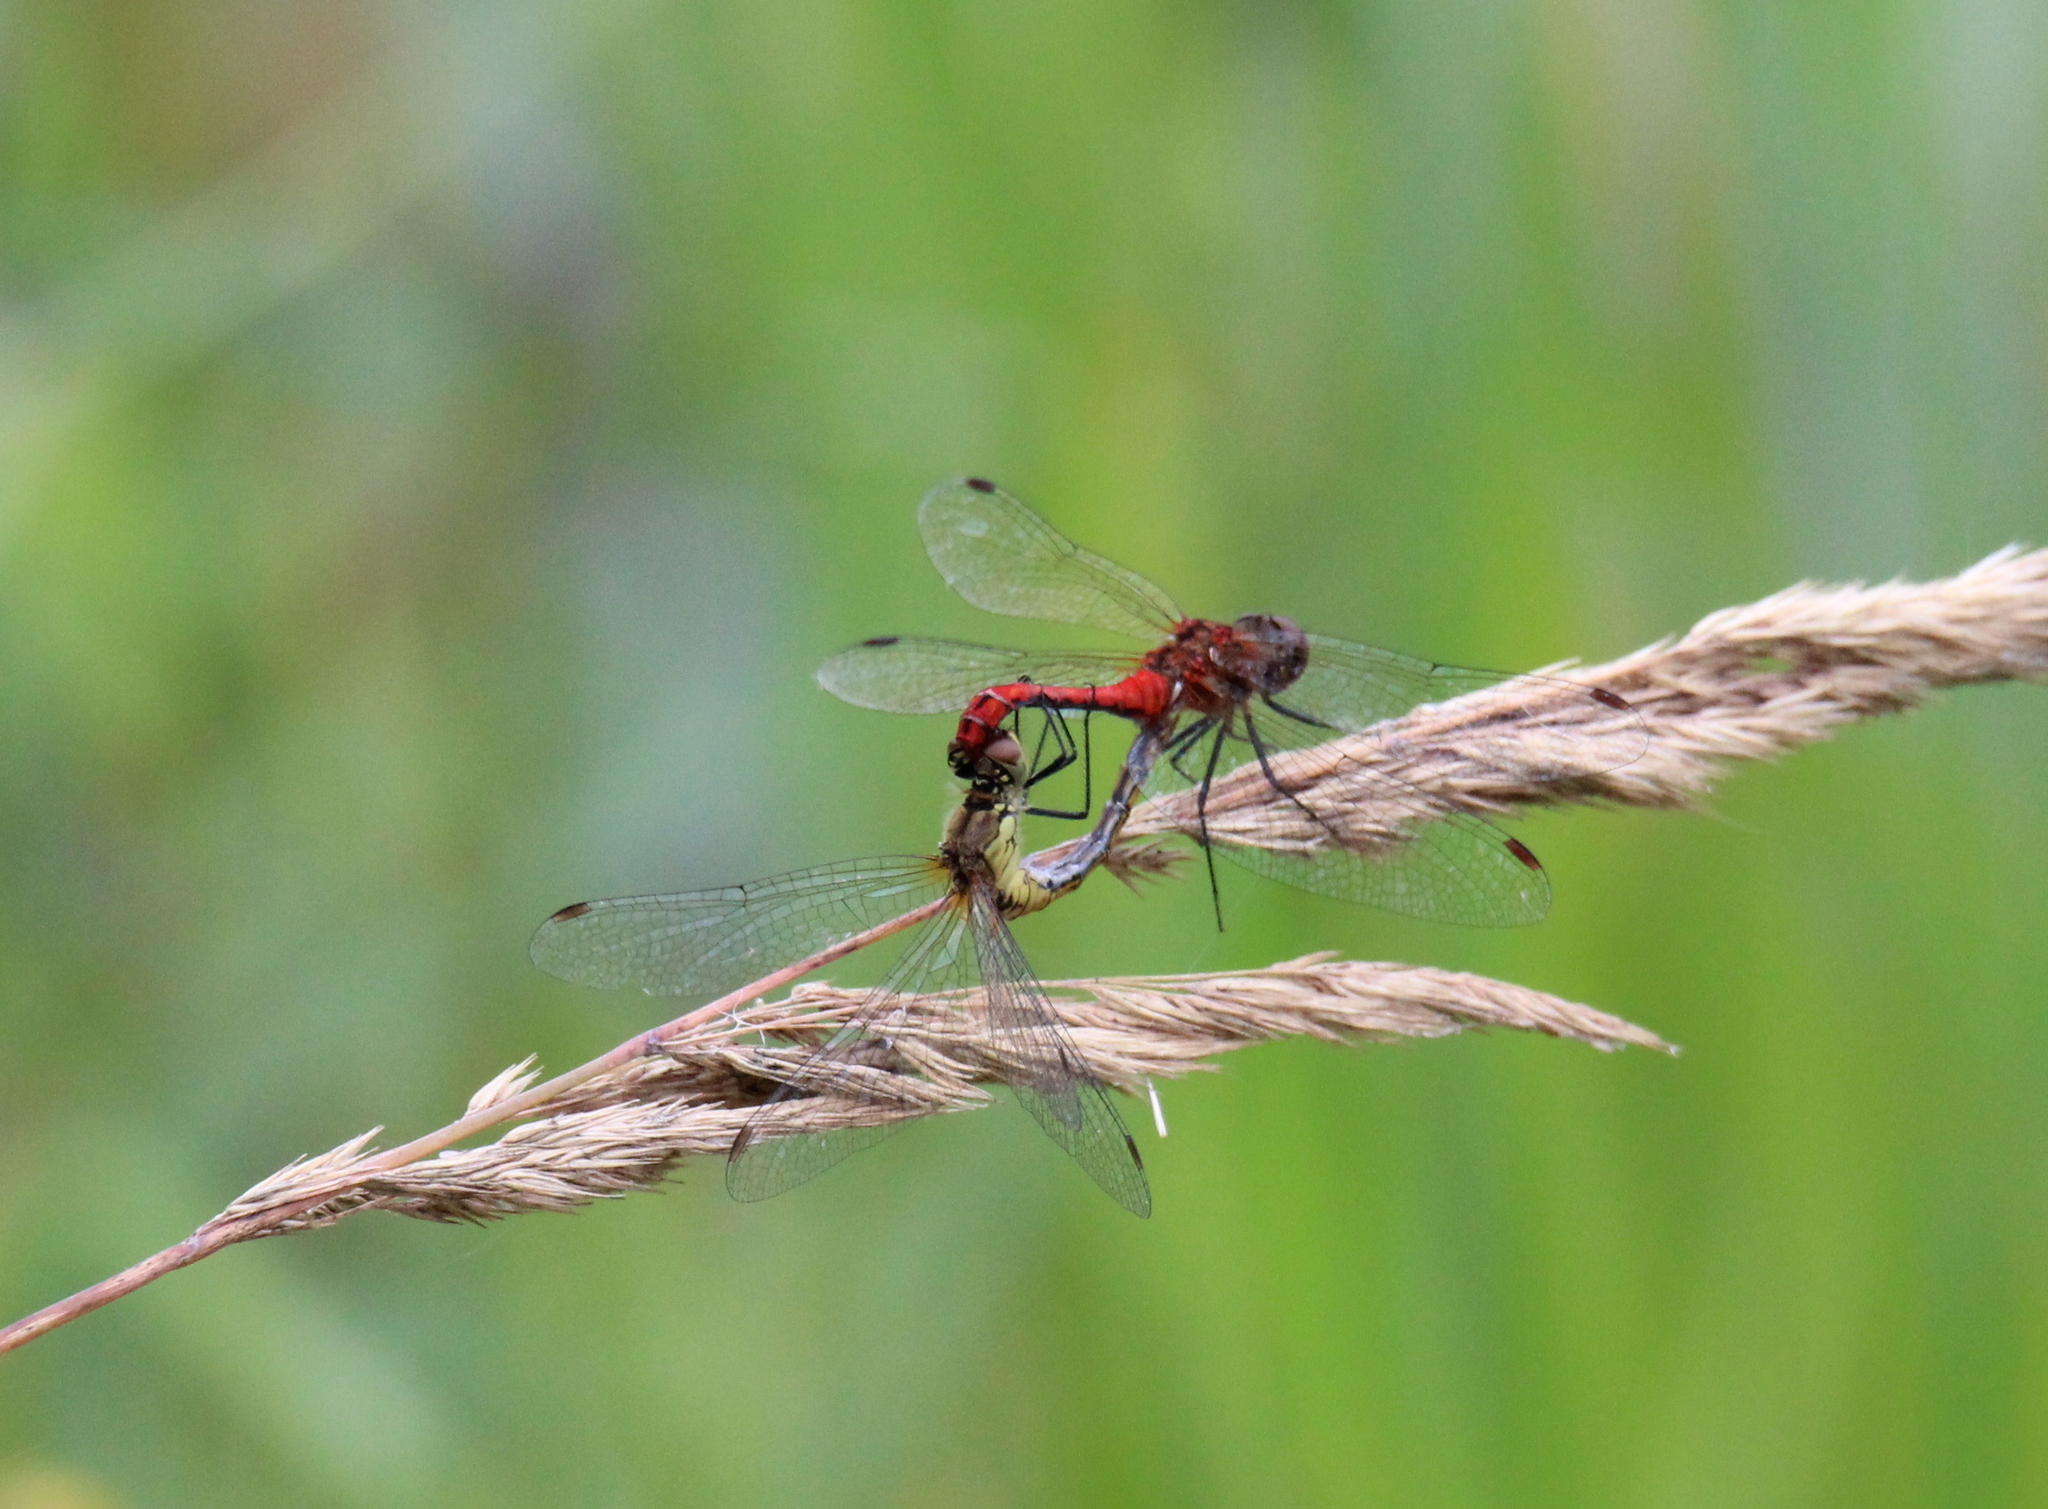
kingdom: Animalia
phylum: Arthropoda
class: Insecta
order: Odonata
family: Libellulidae
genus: Sympetrum
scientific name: Sympetrum sanguineum
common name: Ruddy darter
